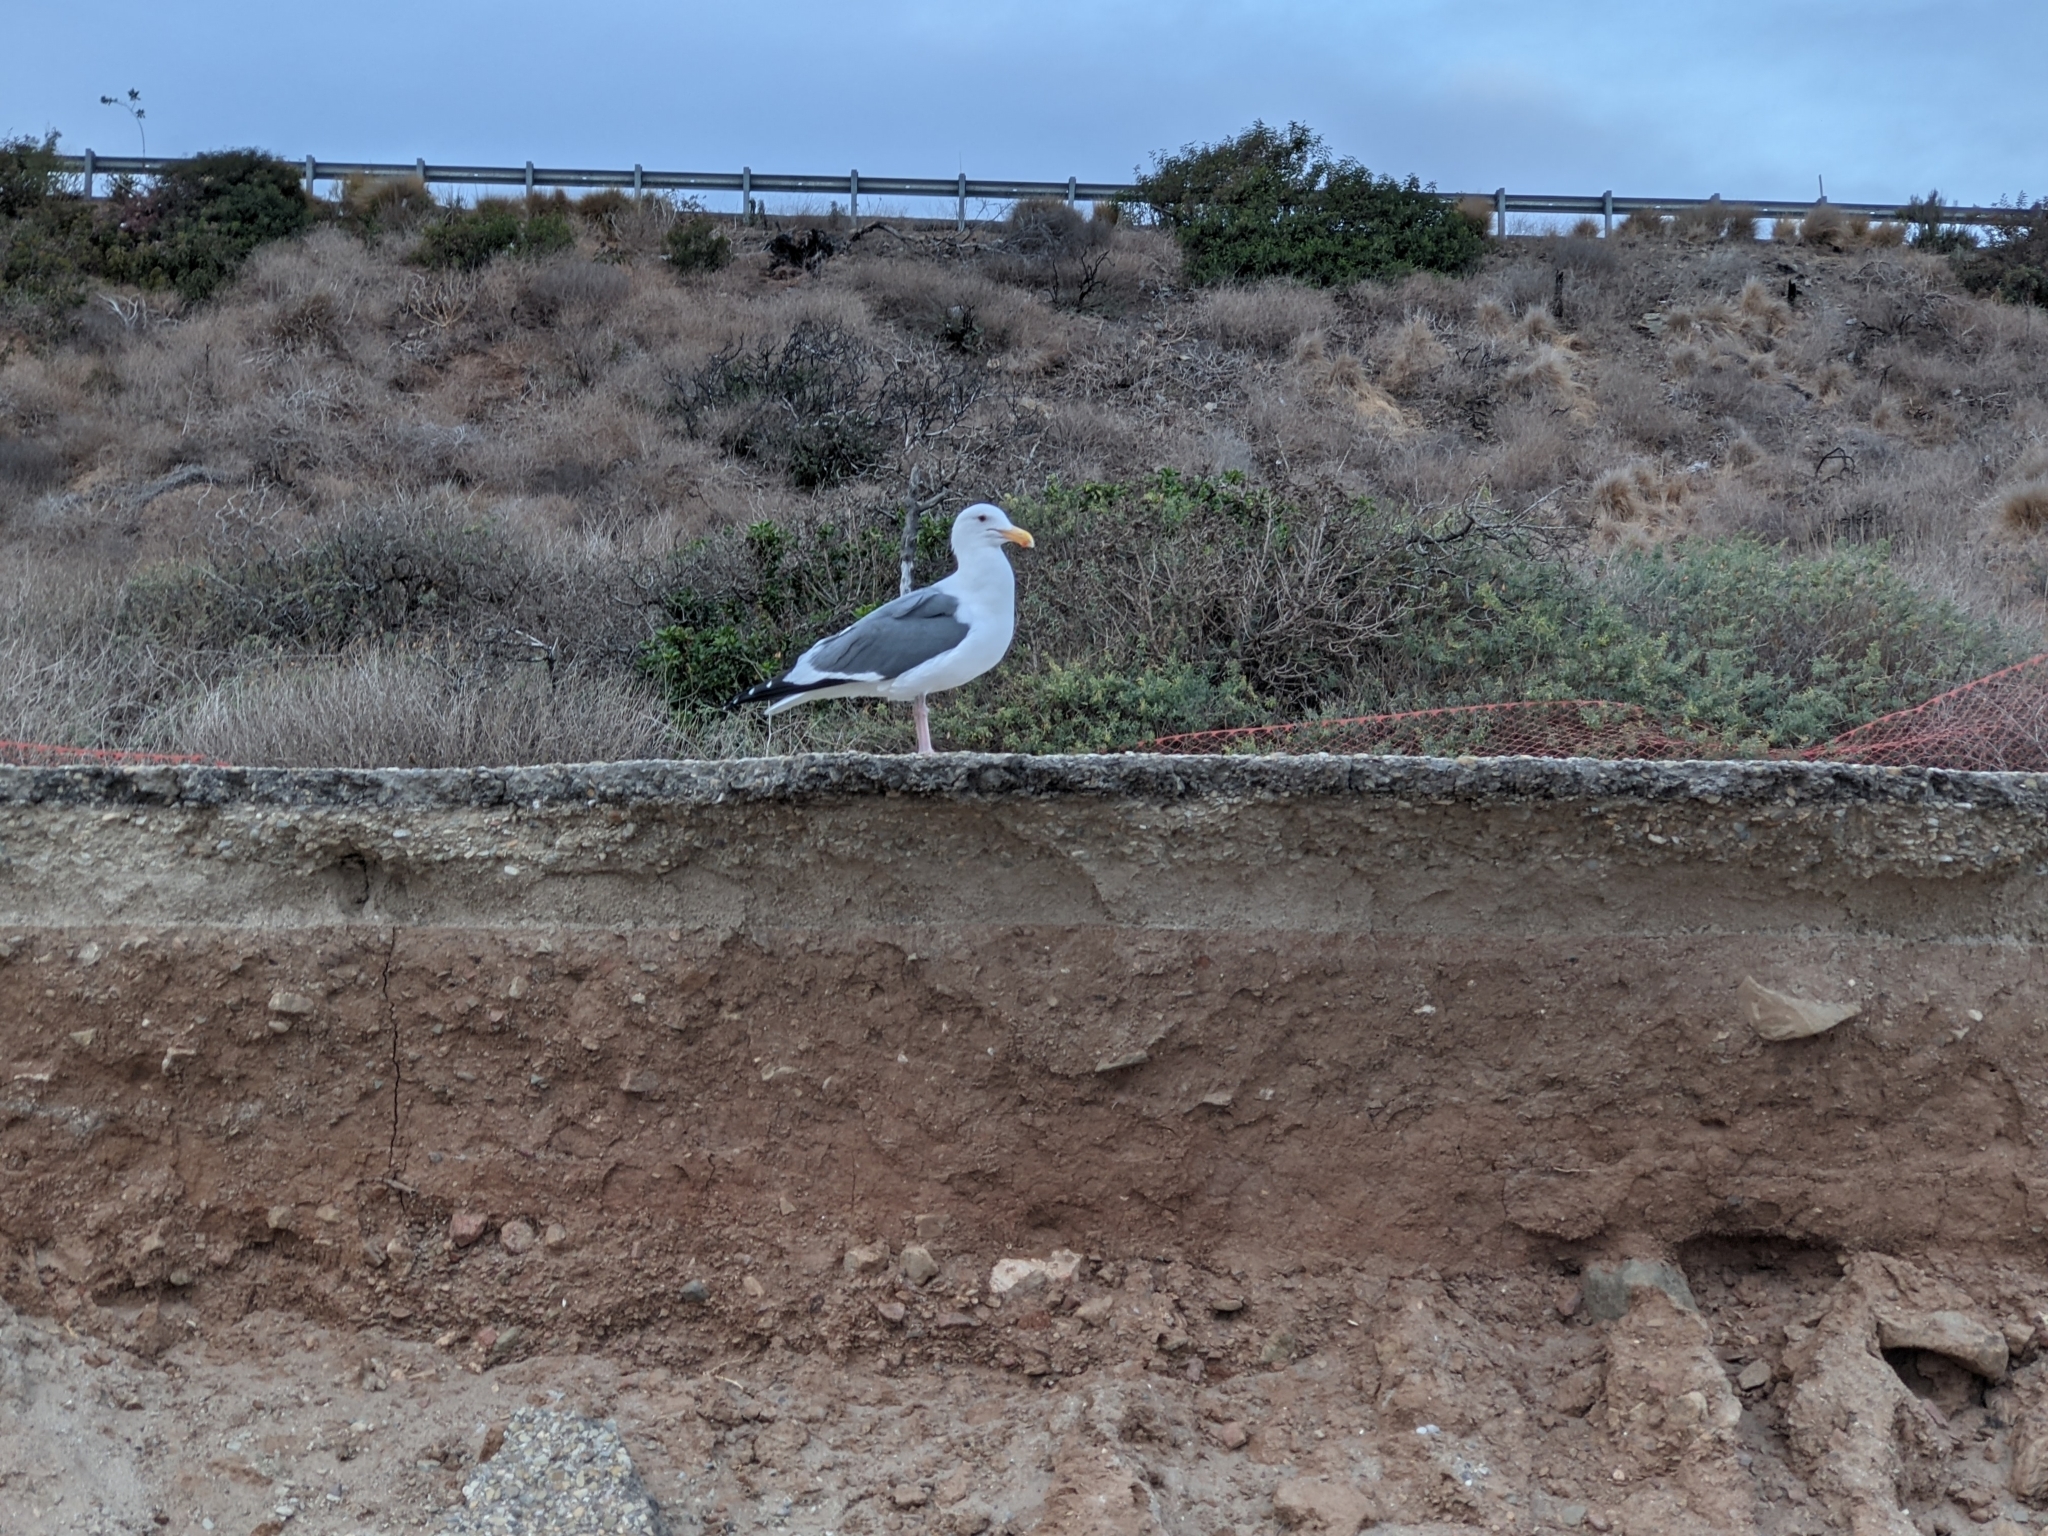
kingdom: Animalia
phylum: Chordata
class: Aves
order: Charadriiformes
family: Laridae
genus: Larus
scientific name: Larus occidentalis
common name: Western gull
